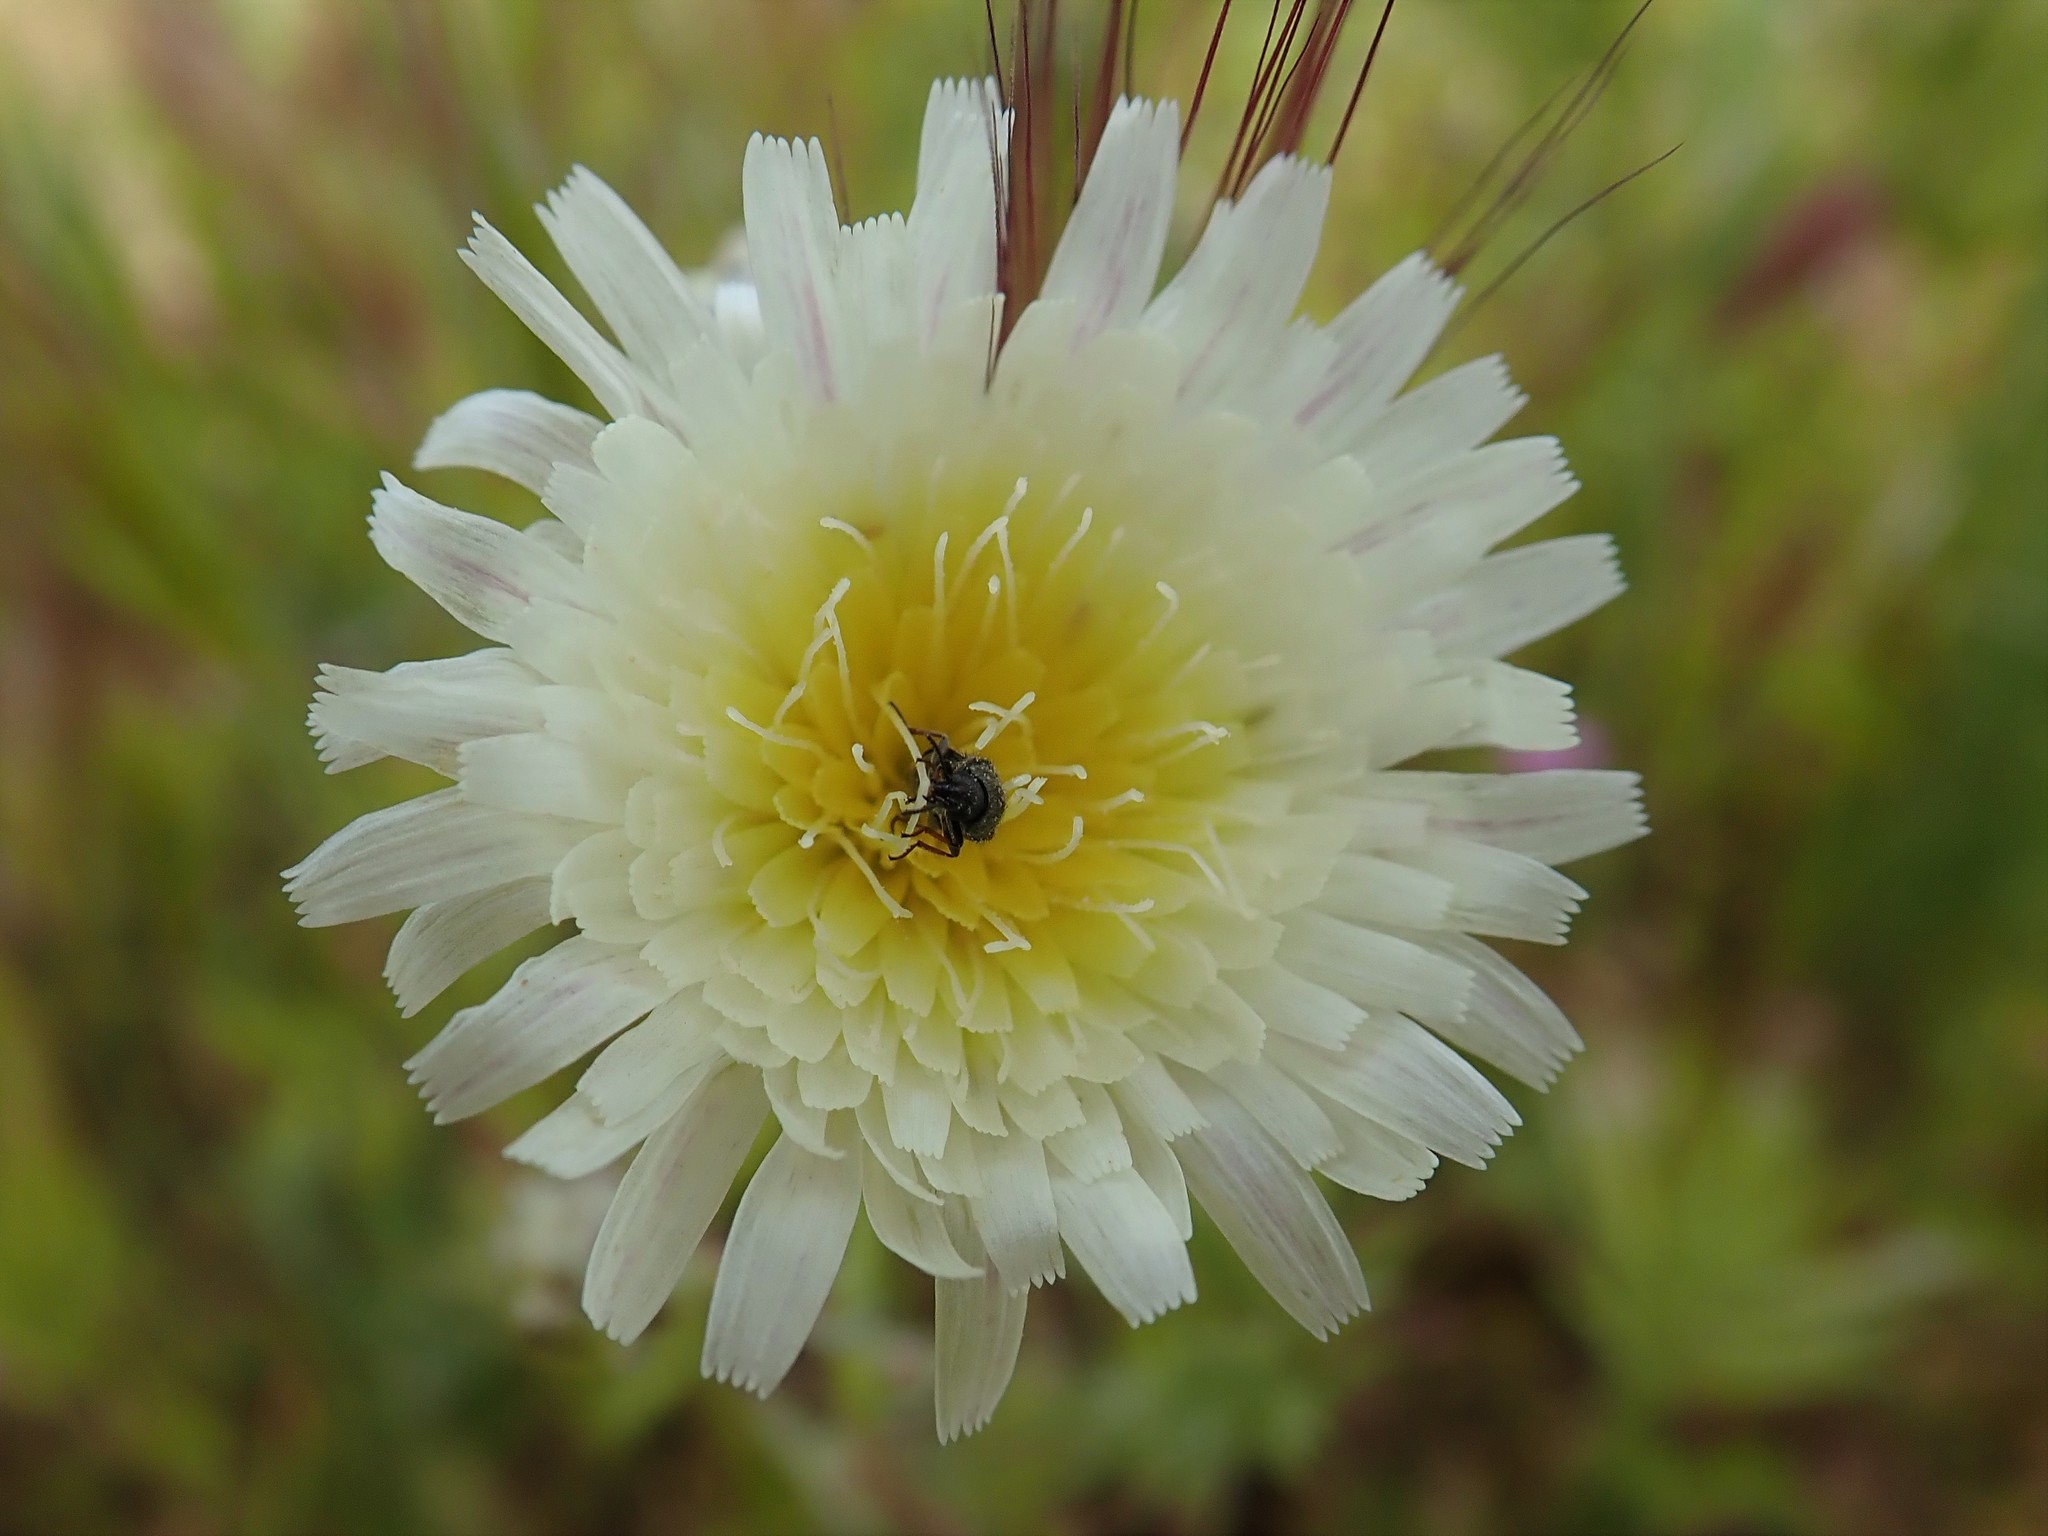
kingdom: Plantae
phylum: Tracheophyta
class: Magnoliopsida
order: Asterales
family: Asteraceae
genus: Malacothrix
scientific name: Malacothrix coulteri
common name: Snake's-head
